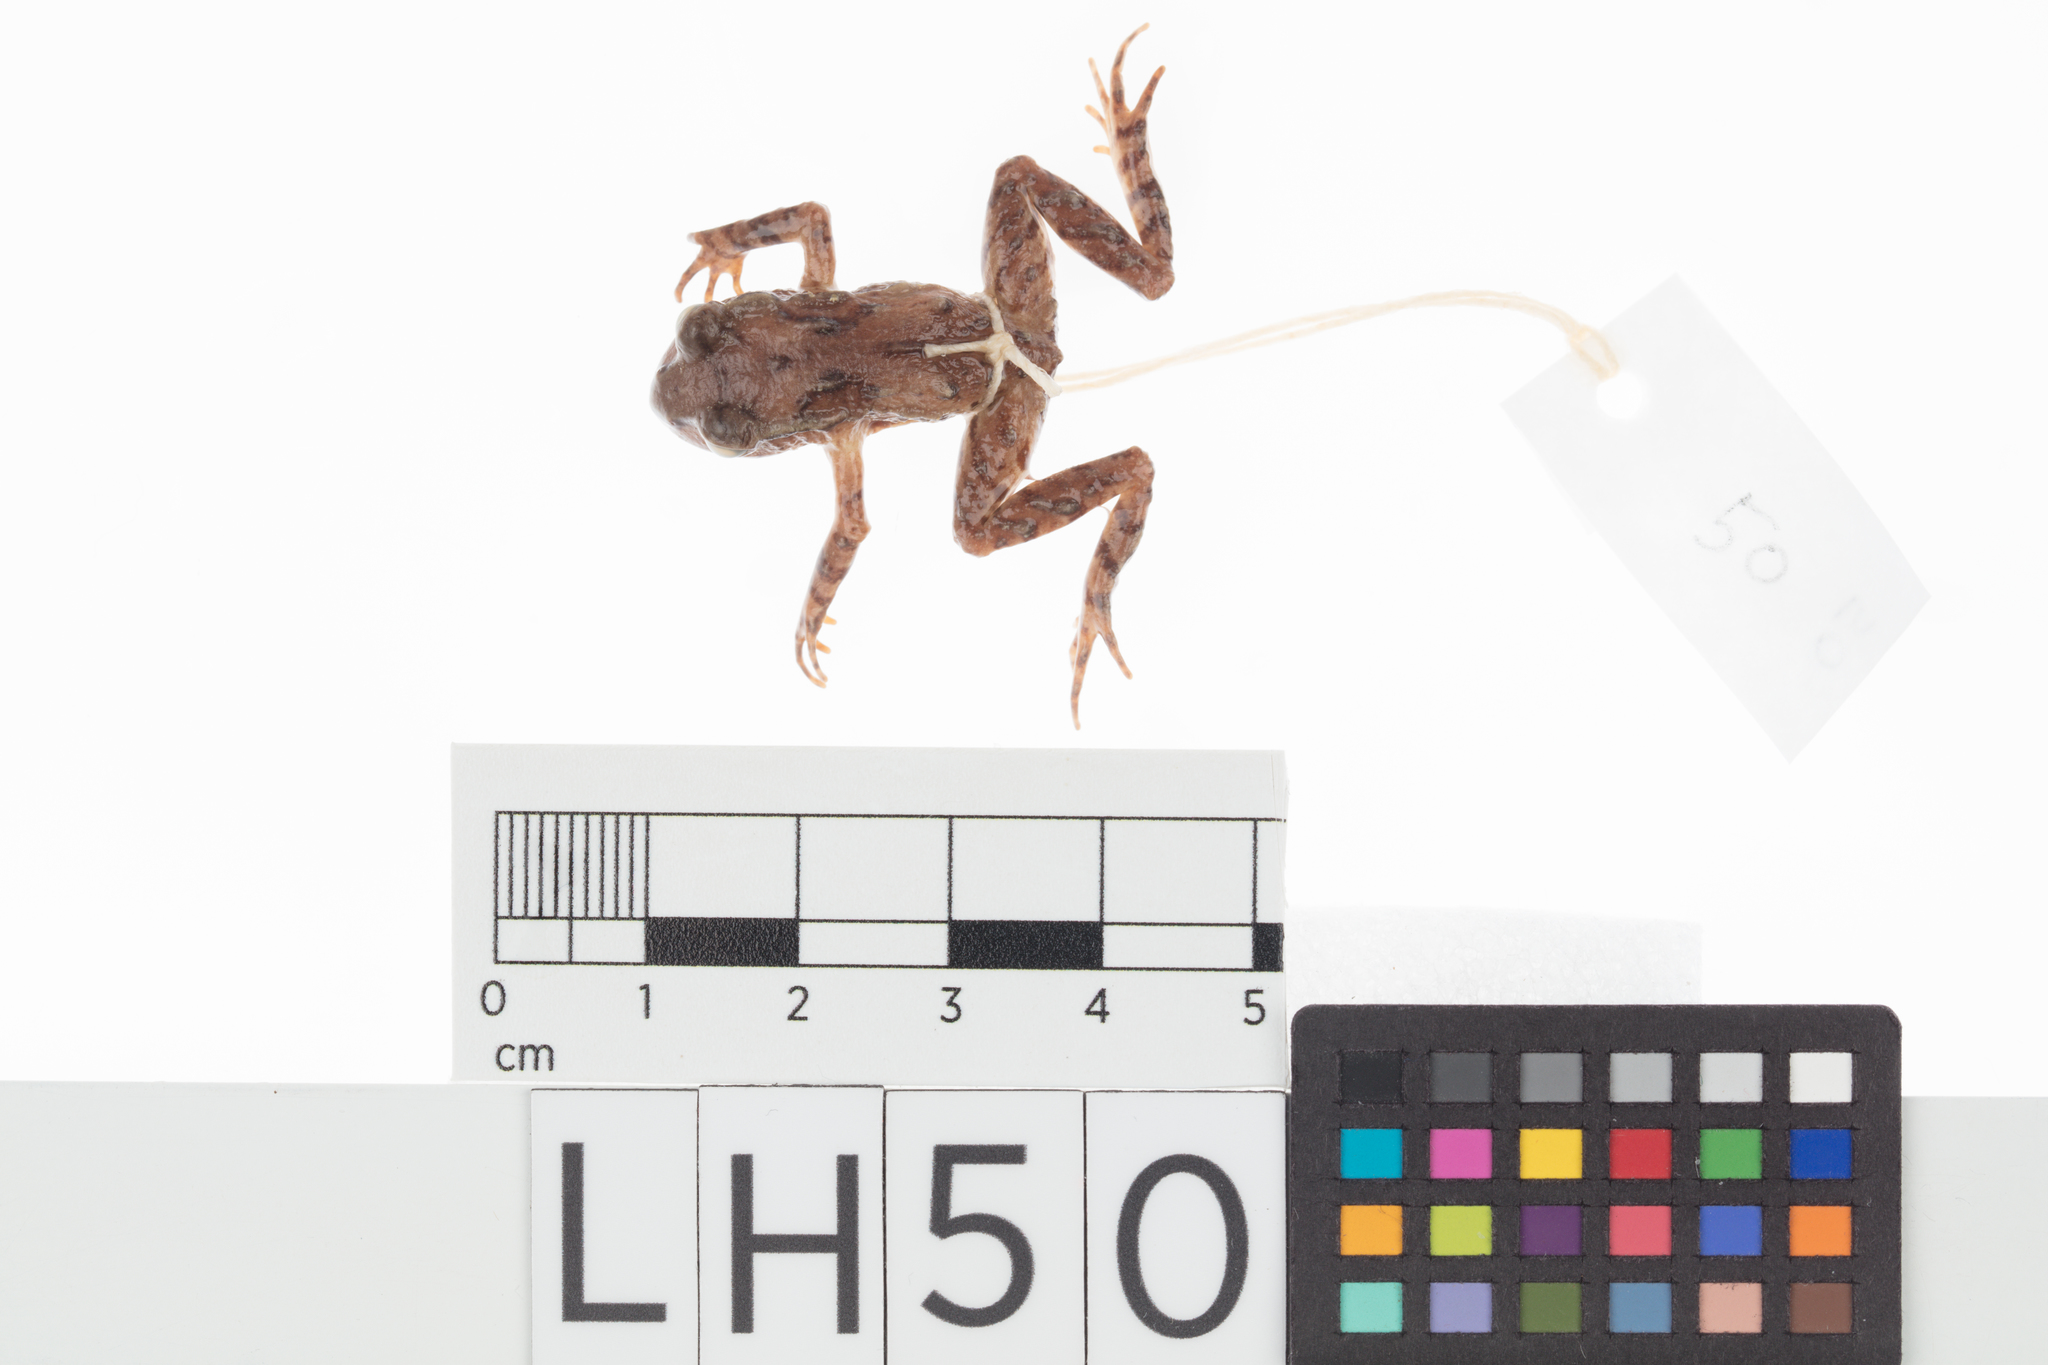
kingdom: Animalia
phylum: Chordata
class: Amphibia
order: Anura
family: Leiopelmatidae
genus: Leiopelma
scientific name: Leiopelma archeyi
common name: Archey's frog
